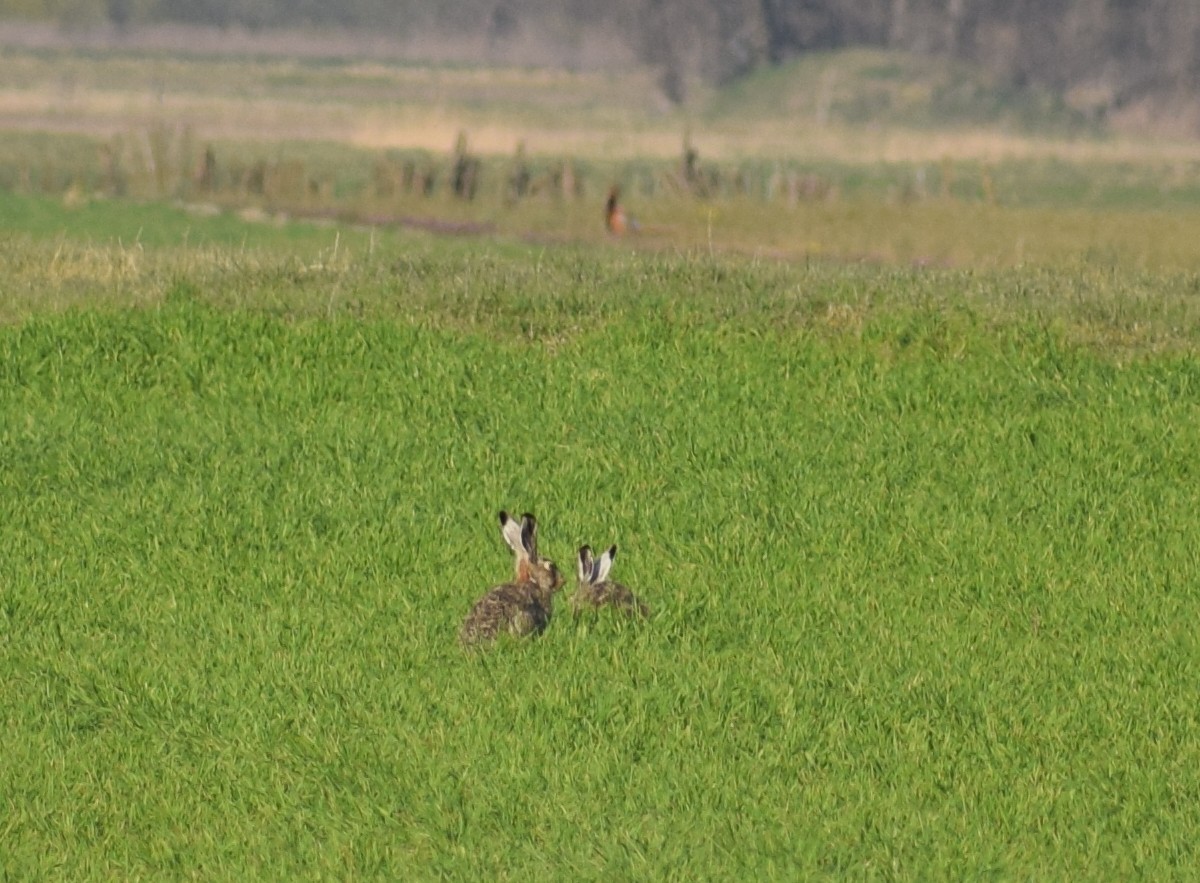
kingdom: Animalia
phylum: Chordata
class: Mammalia
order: Lagomorpha
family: Leporidae
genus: Lepus
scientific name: Lepus europaeus
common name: European hare
